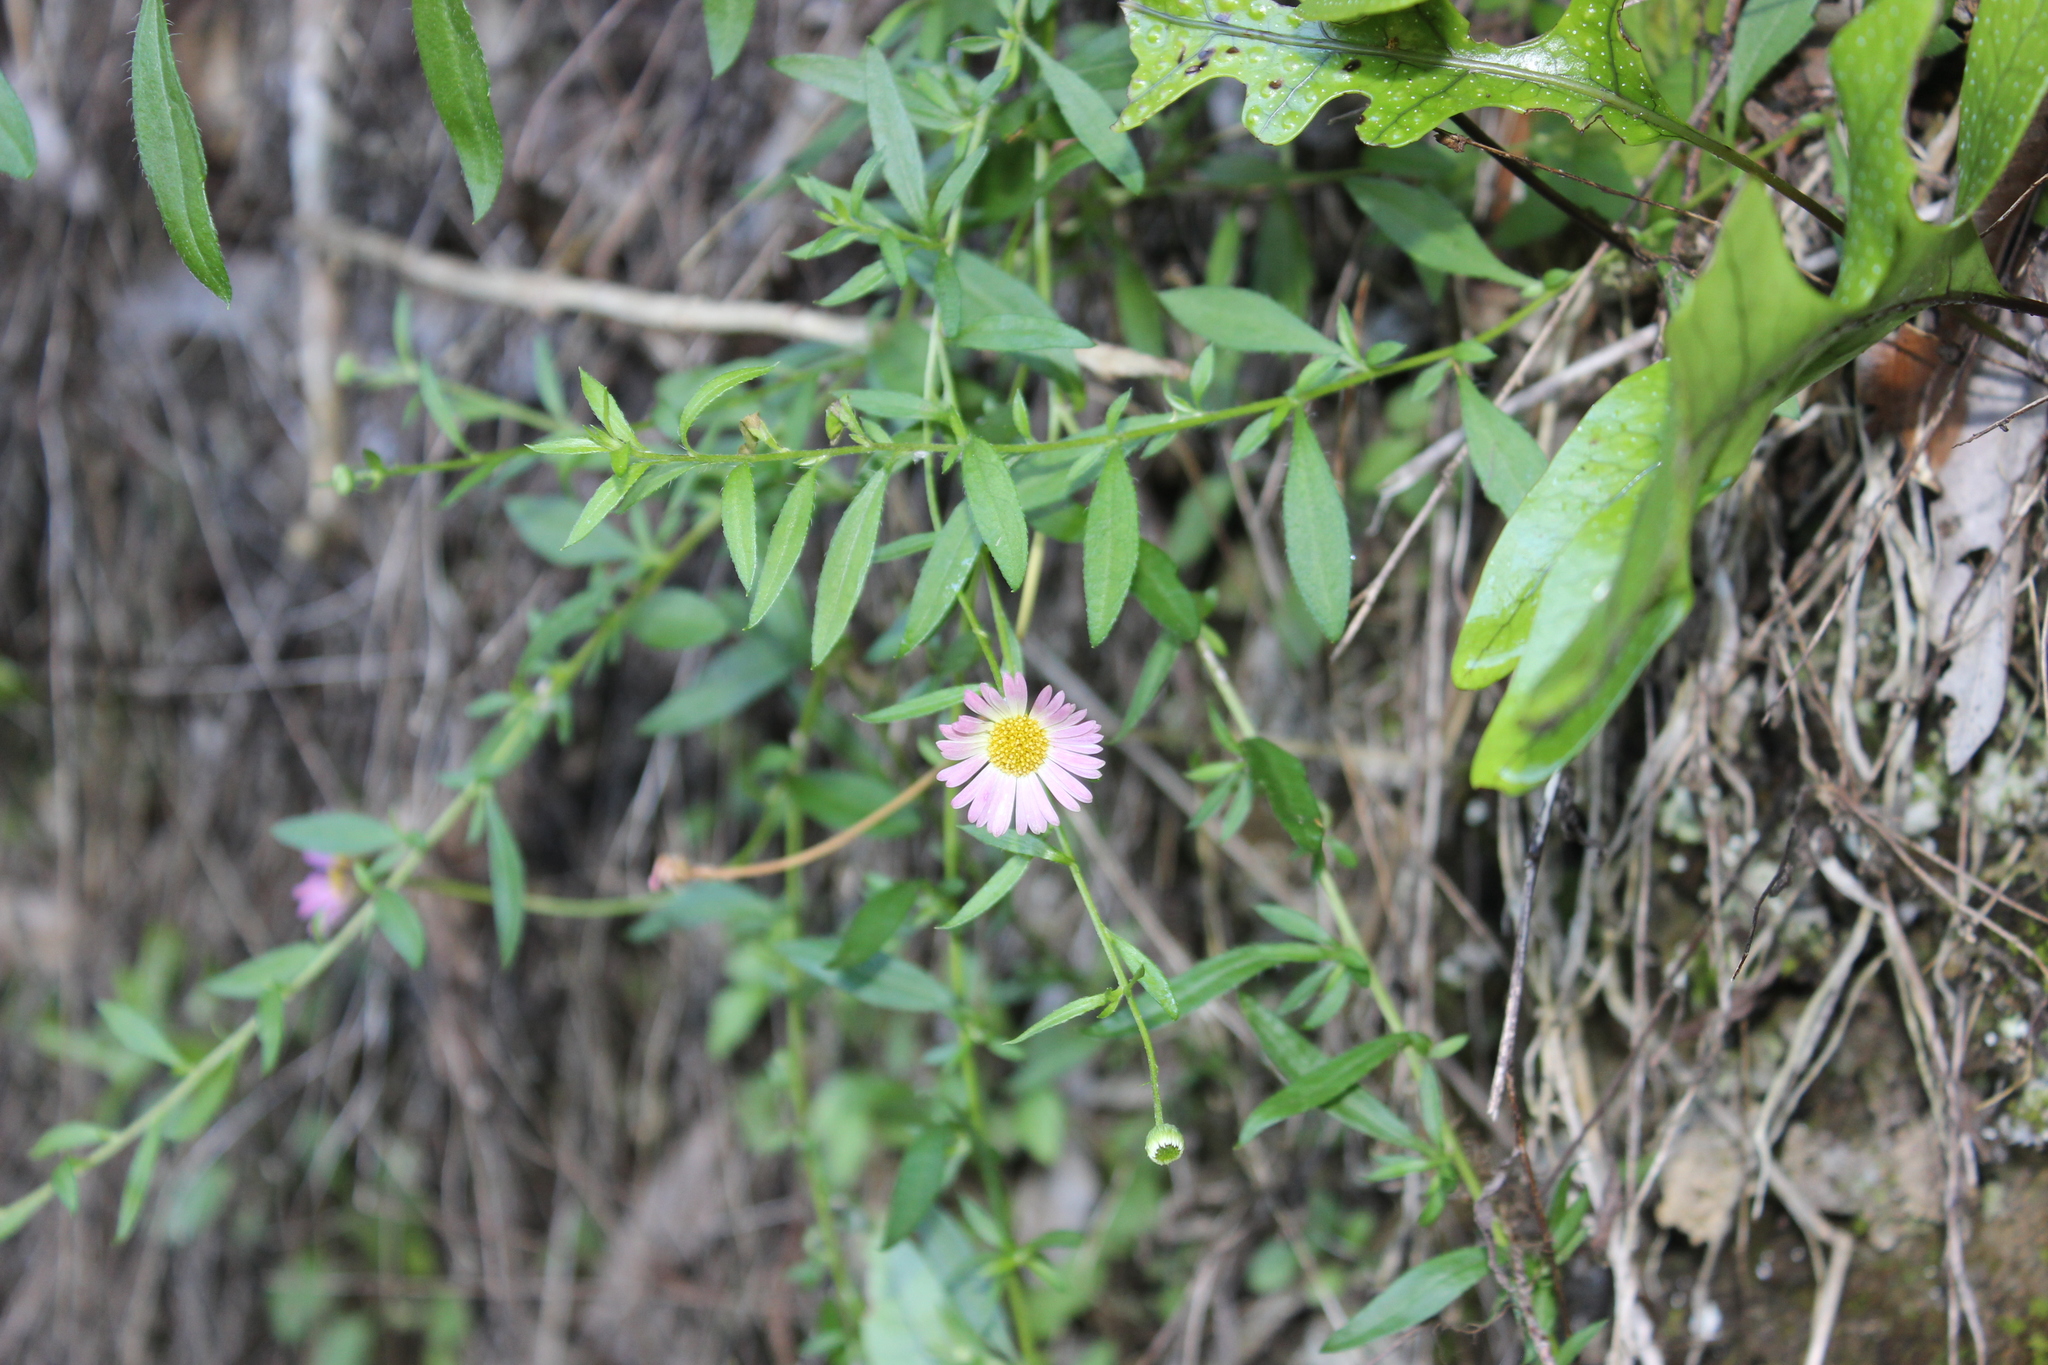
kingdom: Plantae
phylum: Tracheophyta
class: Magnoliopsida
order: Asterales
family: Asteraceae
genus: Erigeron
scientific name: Erigeron karvinskianus
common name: Mexican fleabane
